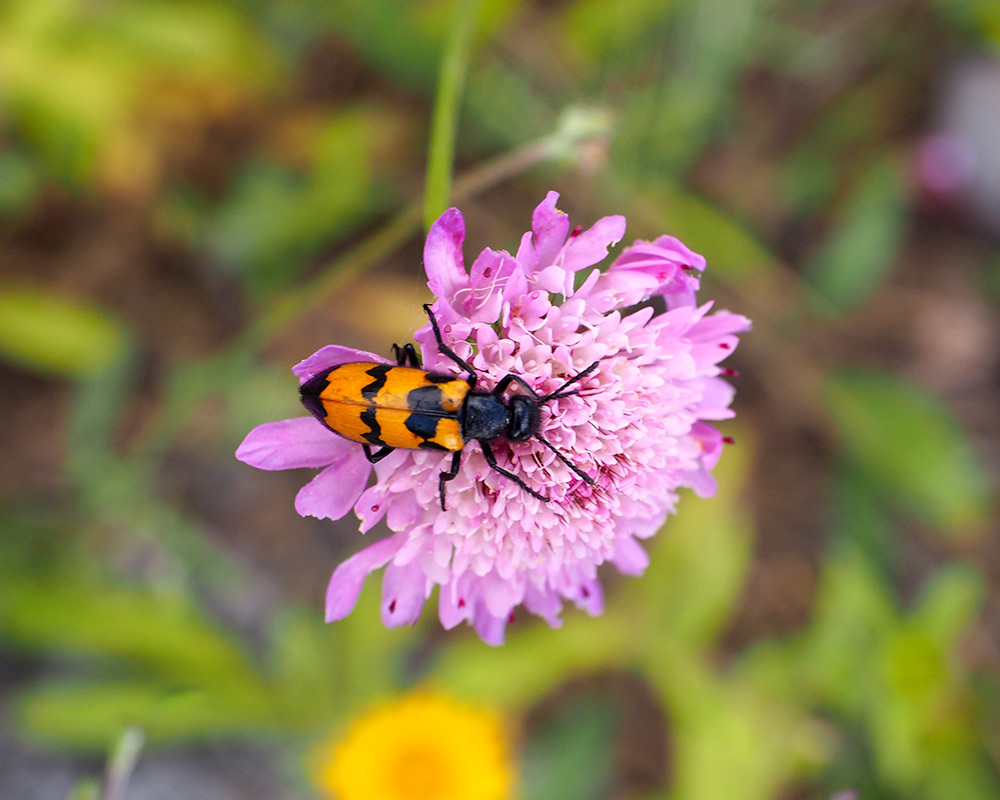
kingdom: Animalia
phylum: Arthropoda
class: Insecta
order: Coleoptera
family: Meloidae
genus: Mylabris
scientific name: Mylabris variabilis
